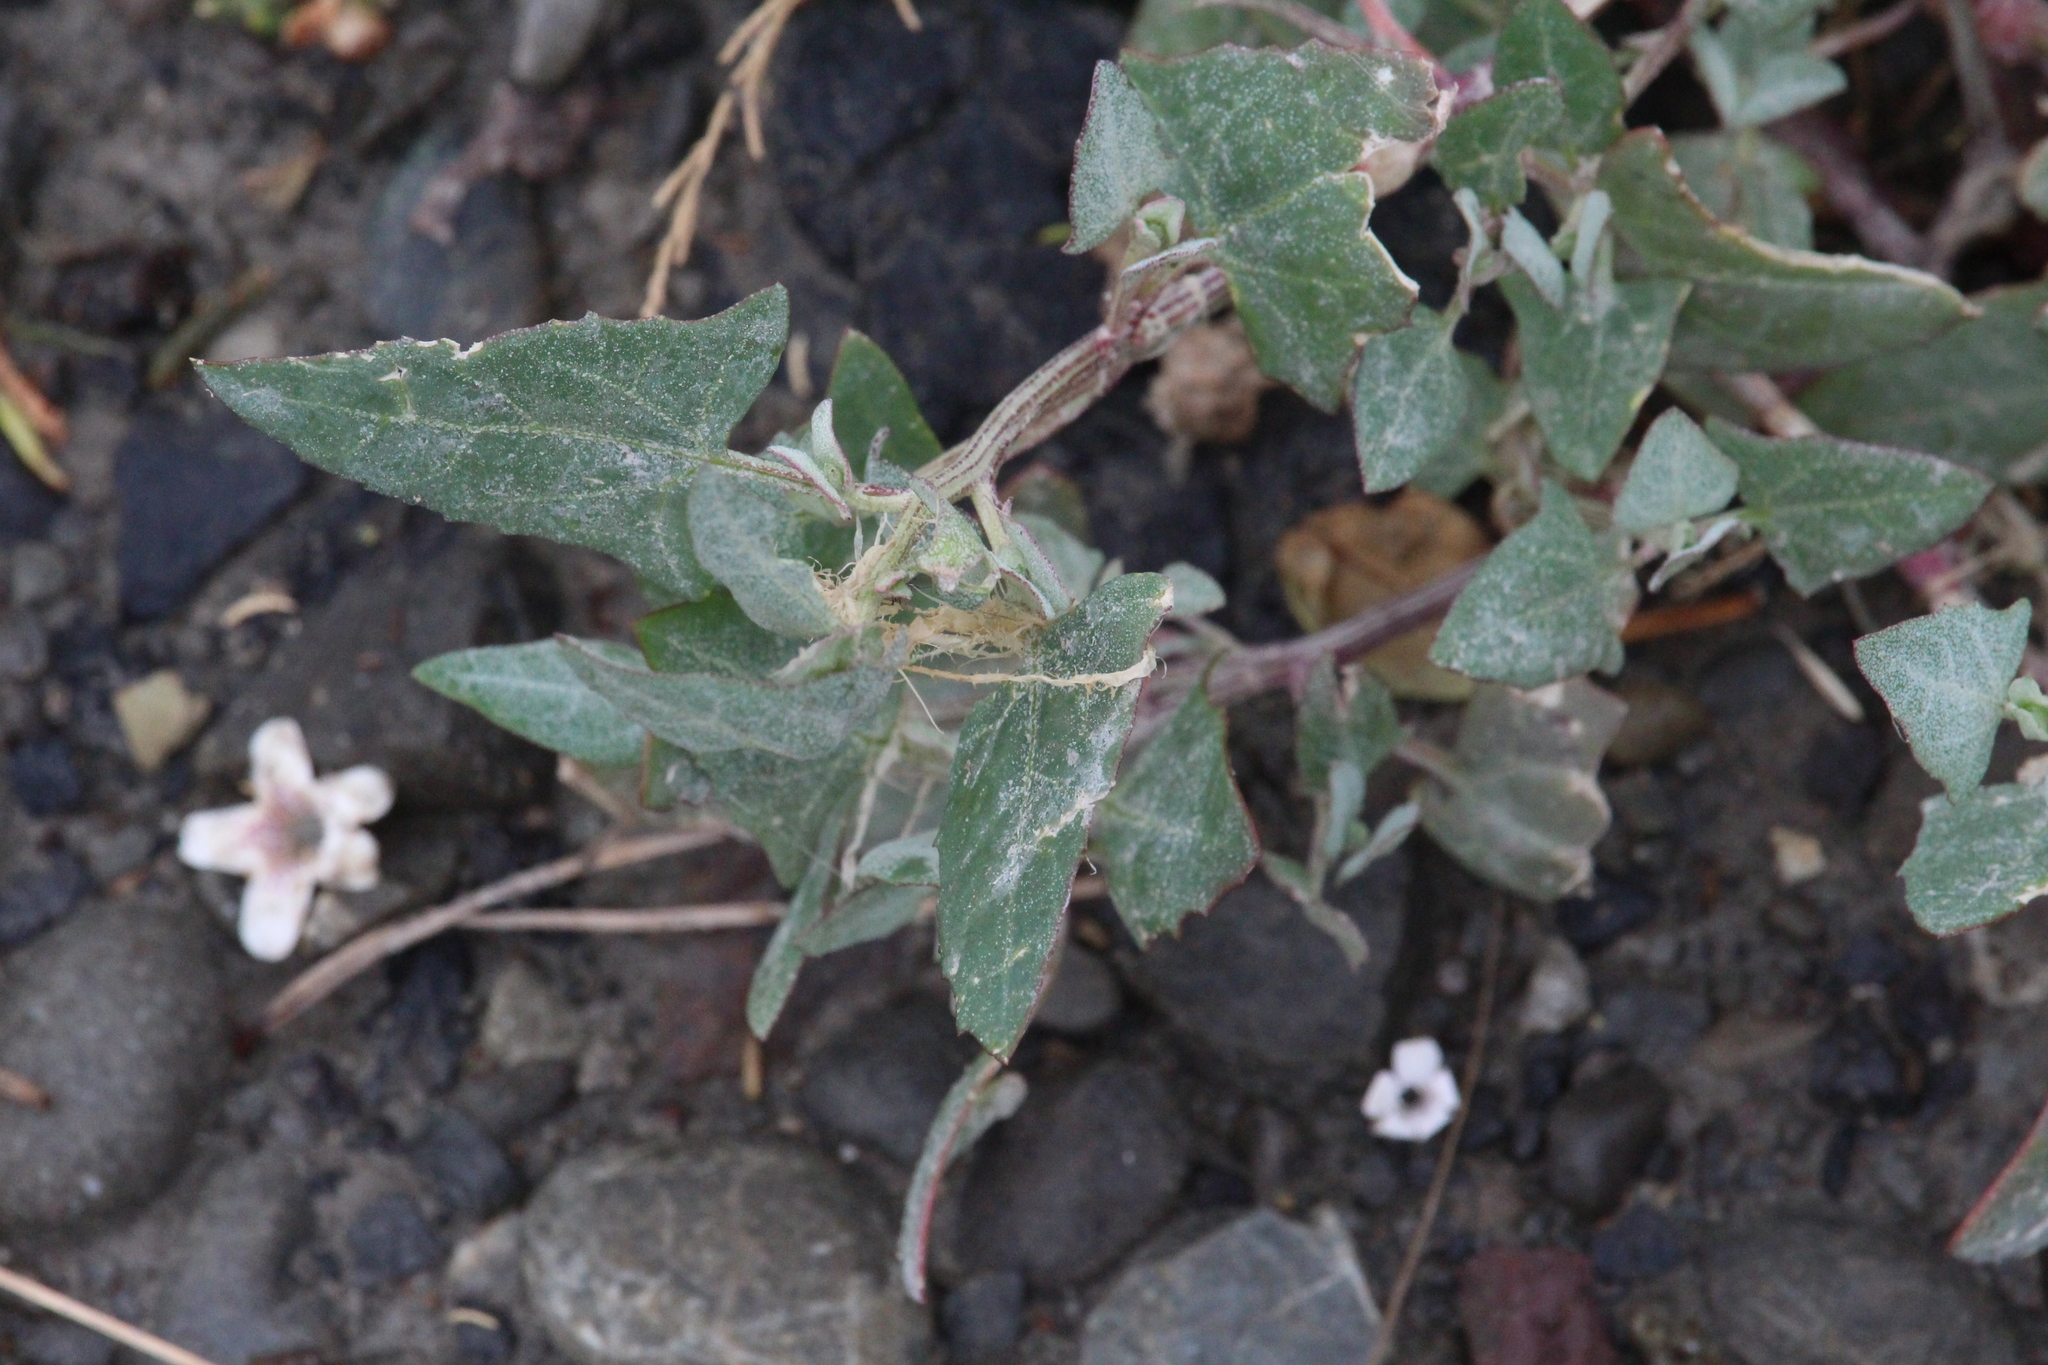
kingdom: Plantae
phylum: Tracheophyta
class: Magnoliopsida
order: Caryophyllales
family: Amaranthaceae
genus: Atriplex
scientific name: Atriplex prostrata
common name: Spear-leaved orache
